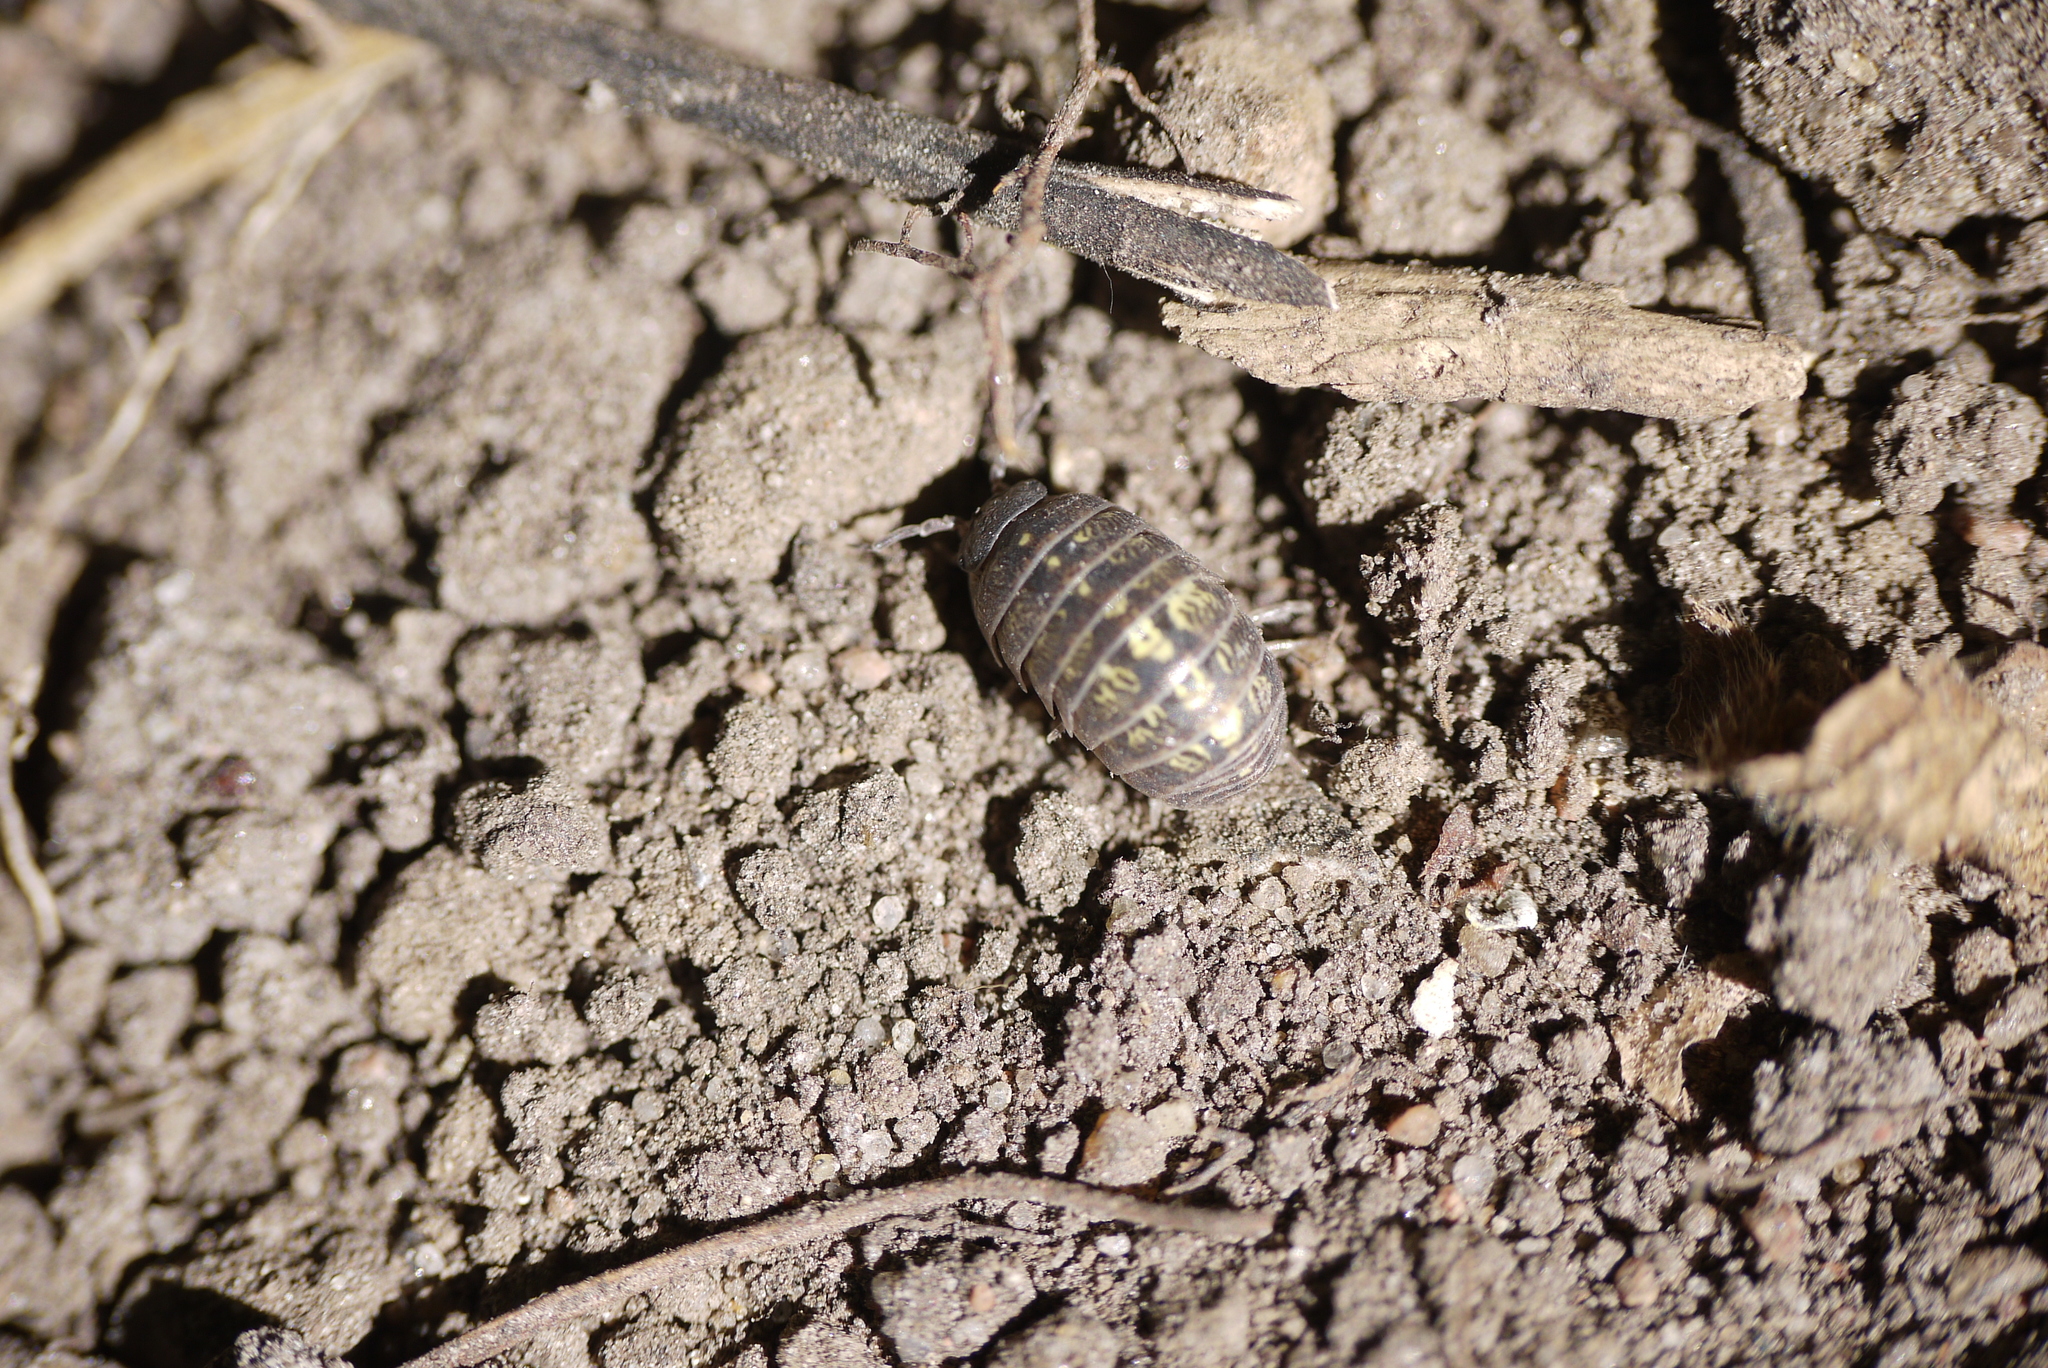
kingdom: Animalia
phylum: Arthropoda
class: Malacostraca
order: Isopoda
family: Armadillidiidae
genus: Armadillidium
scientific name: Armadillidium vulgare
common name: Common pill woodlouse
